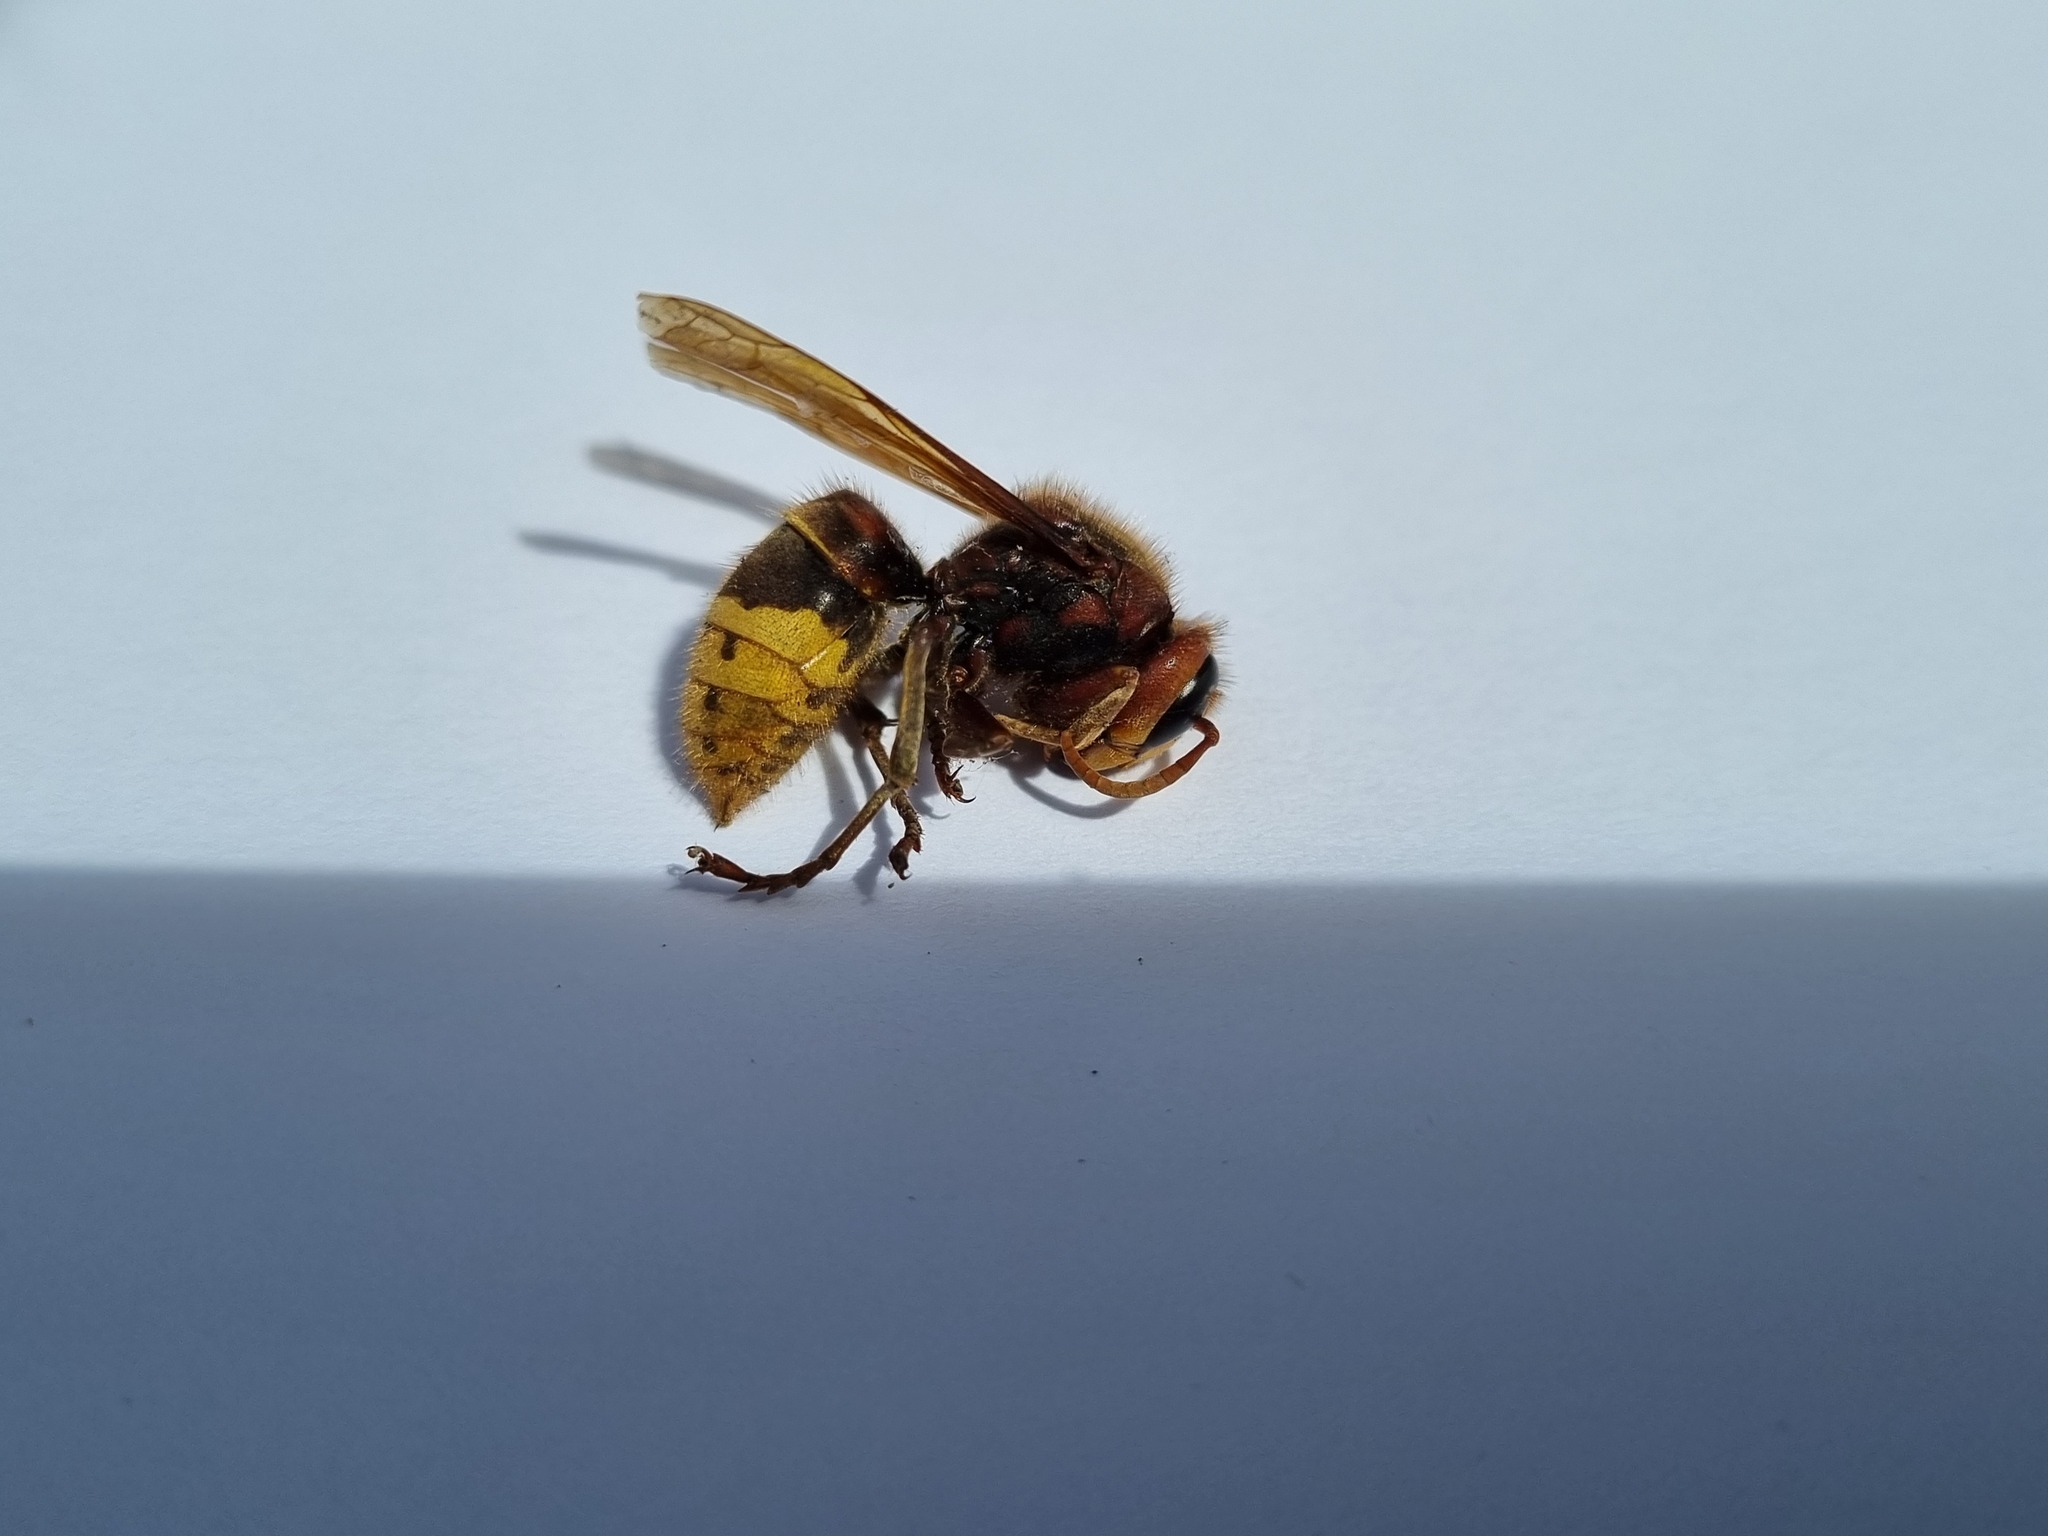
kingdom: Animalia
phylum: Arthropoda
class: Insecta
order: Hymenoptera
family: Vespidae
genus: Vespa
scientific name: Vespa crabro
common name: Hornet
